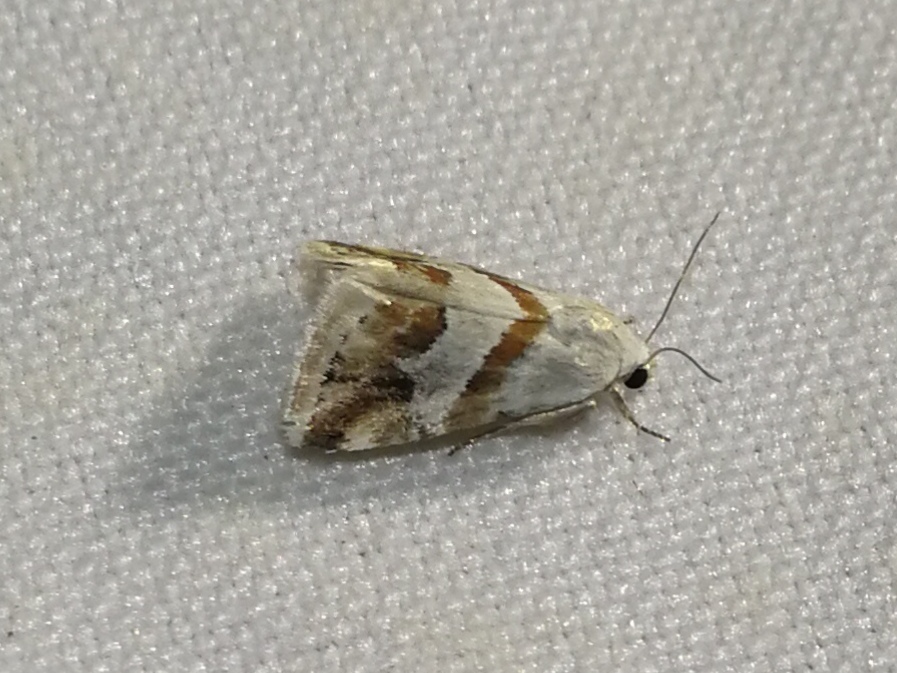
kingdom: Animalia
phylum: Arthropoda
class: Insecta
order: Lepidoptera
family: Noctuidae
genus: Eublemma
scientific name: Eublemma candidana
